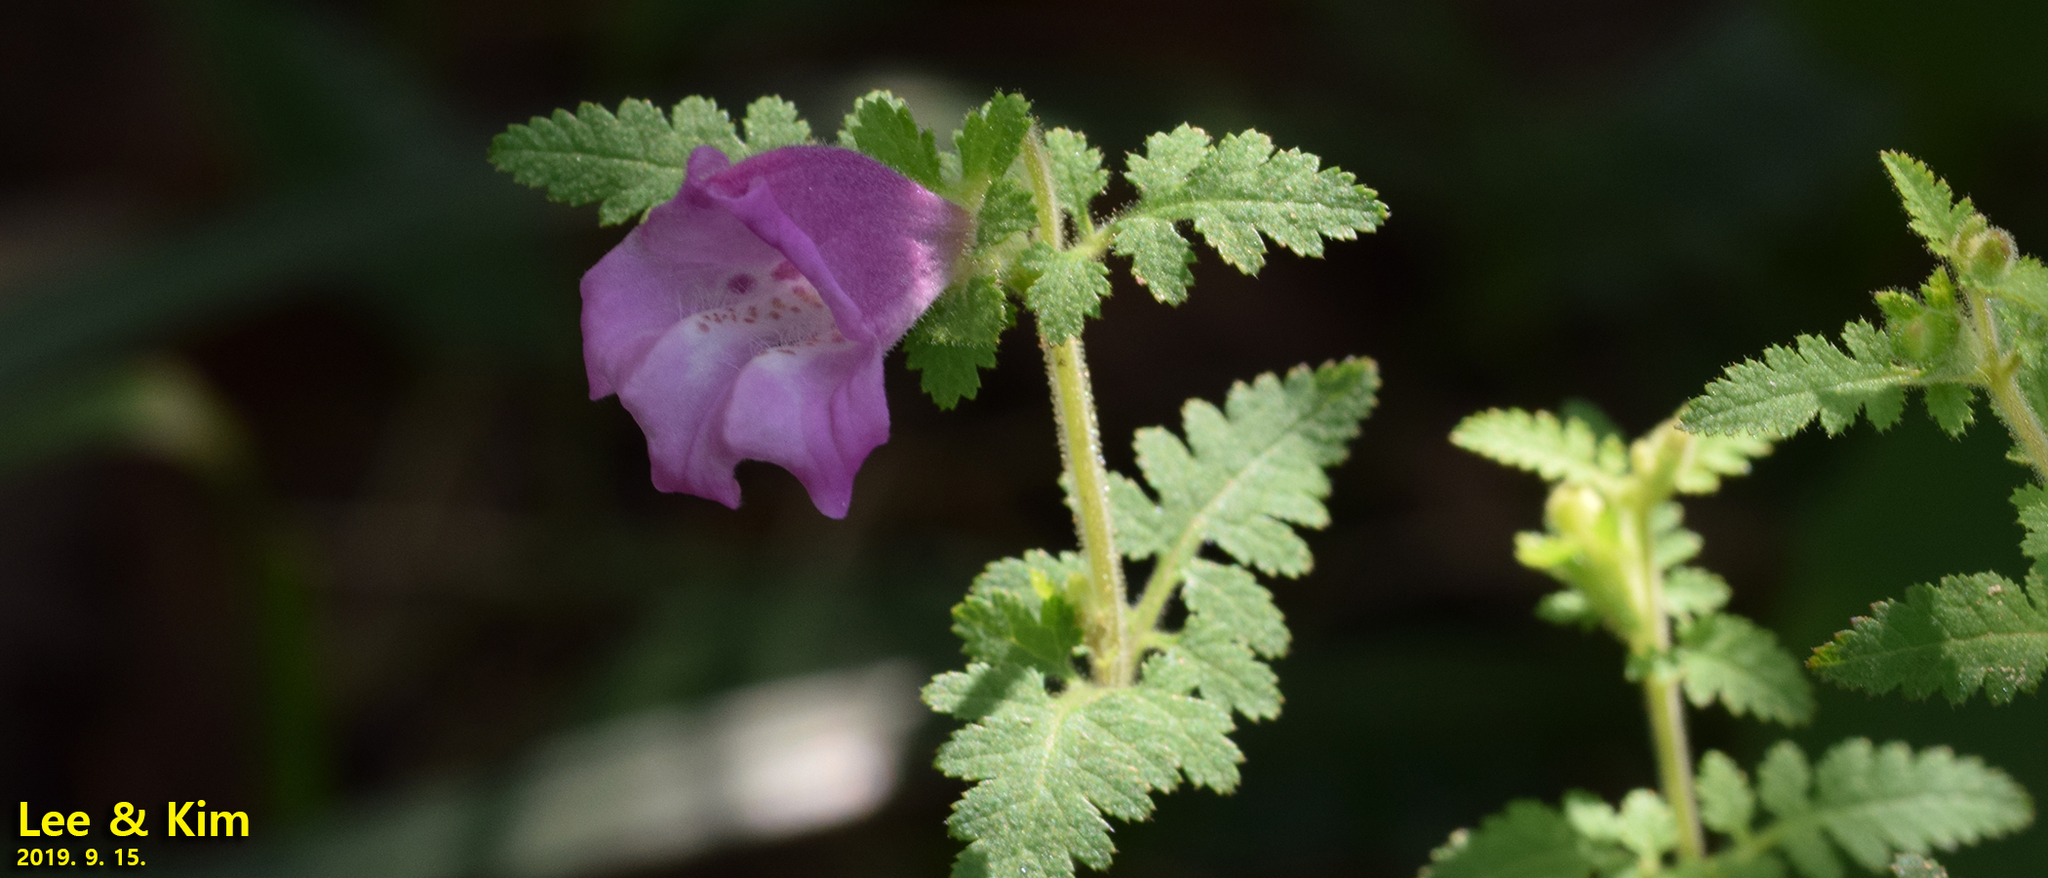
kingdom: Plantae
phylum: Tracheophyta
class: Magnoliopsida
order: Lamiales
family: Orobanchaceae
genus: Phtheirospermum
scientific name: Phtheirospermum japonicum
